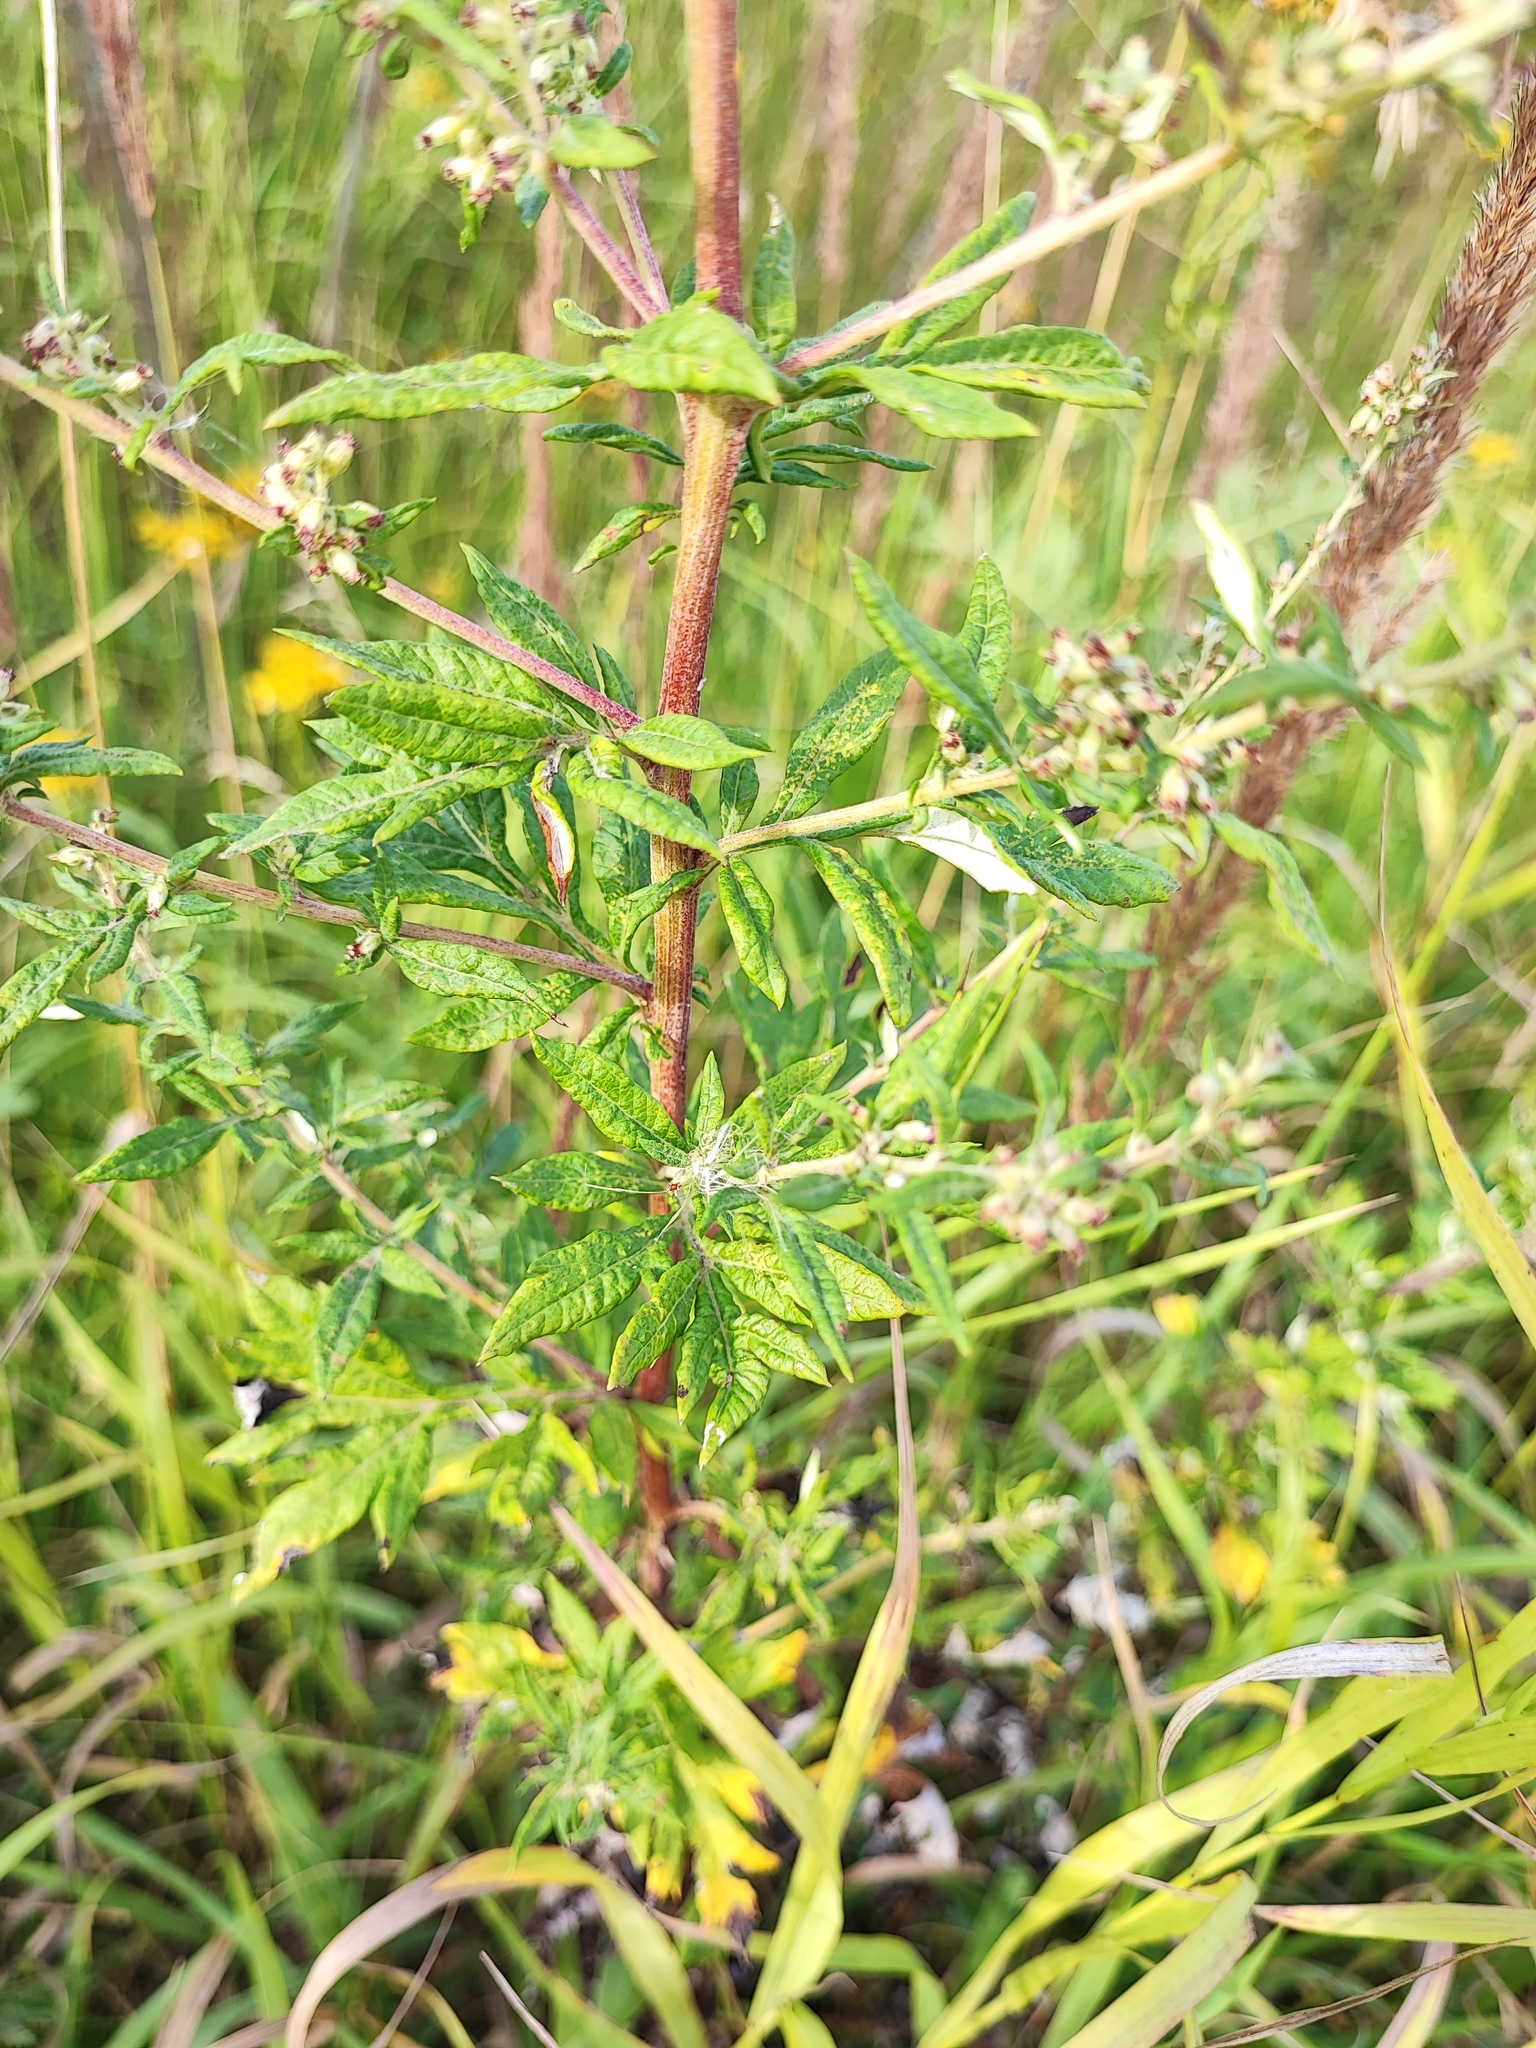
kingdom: Plantae
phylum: Tracheophyta
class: Magnoliopsida
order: Asterales
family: Asteraceae
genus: Artemisia
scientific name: Artemisia vulgaris
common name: Mugwort
